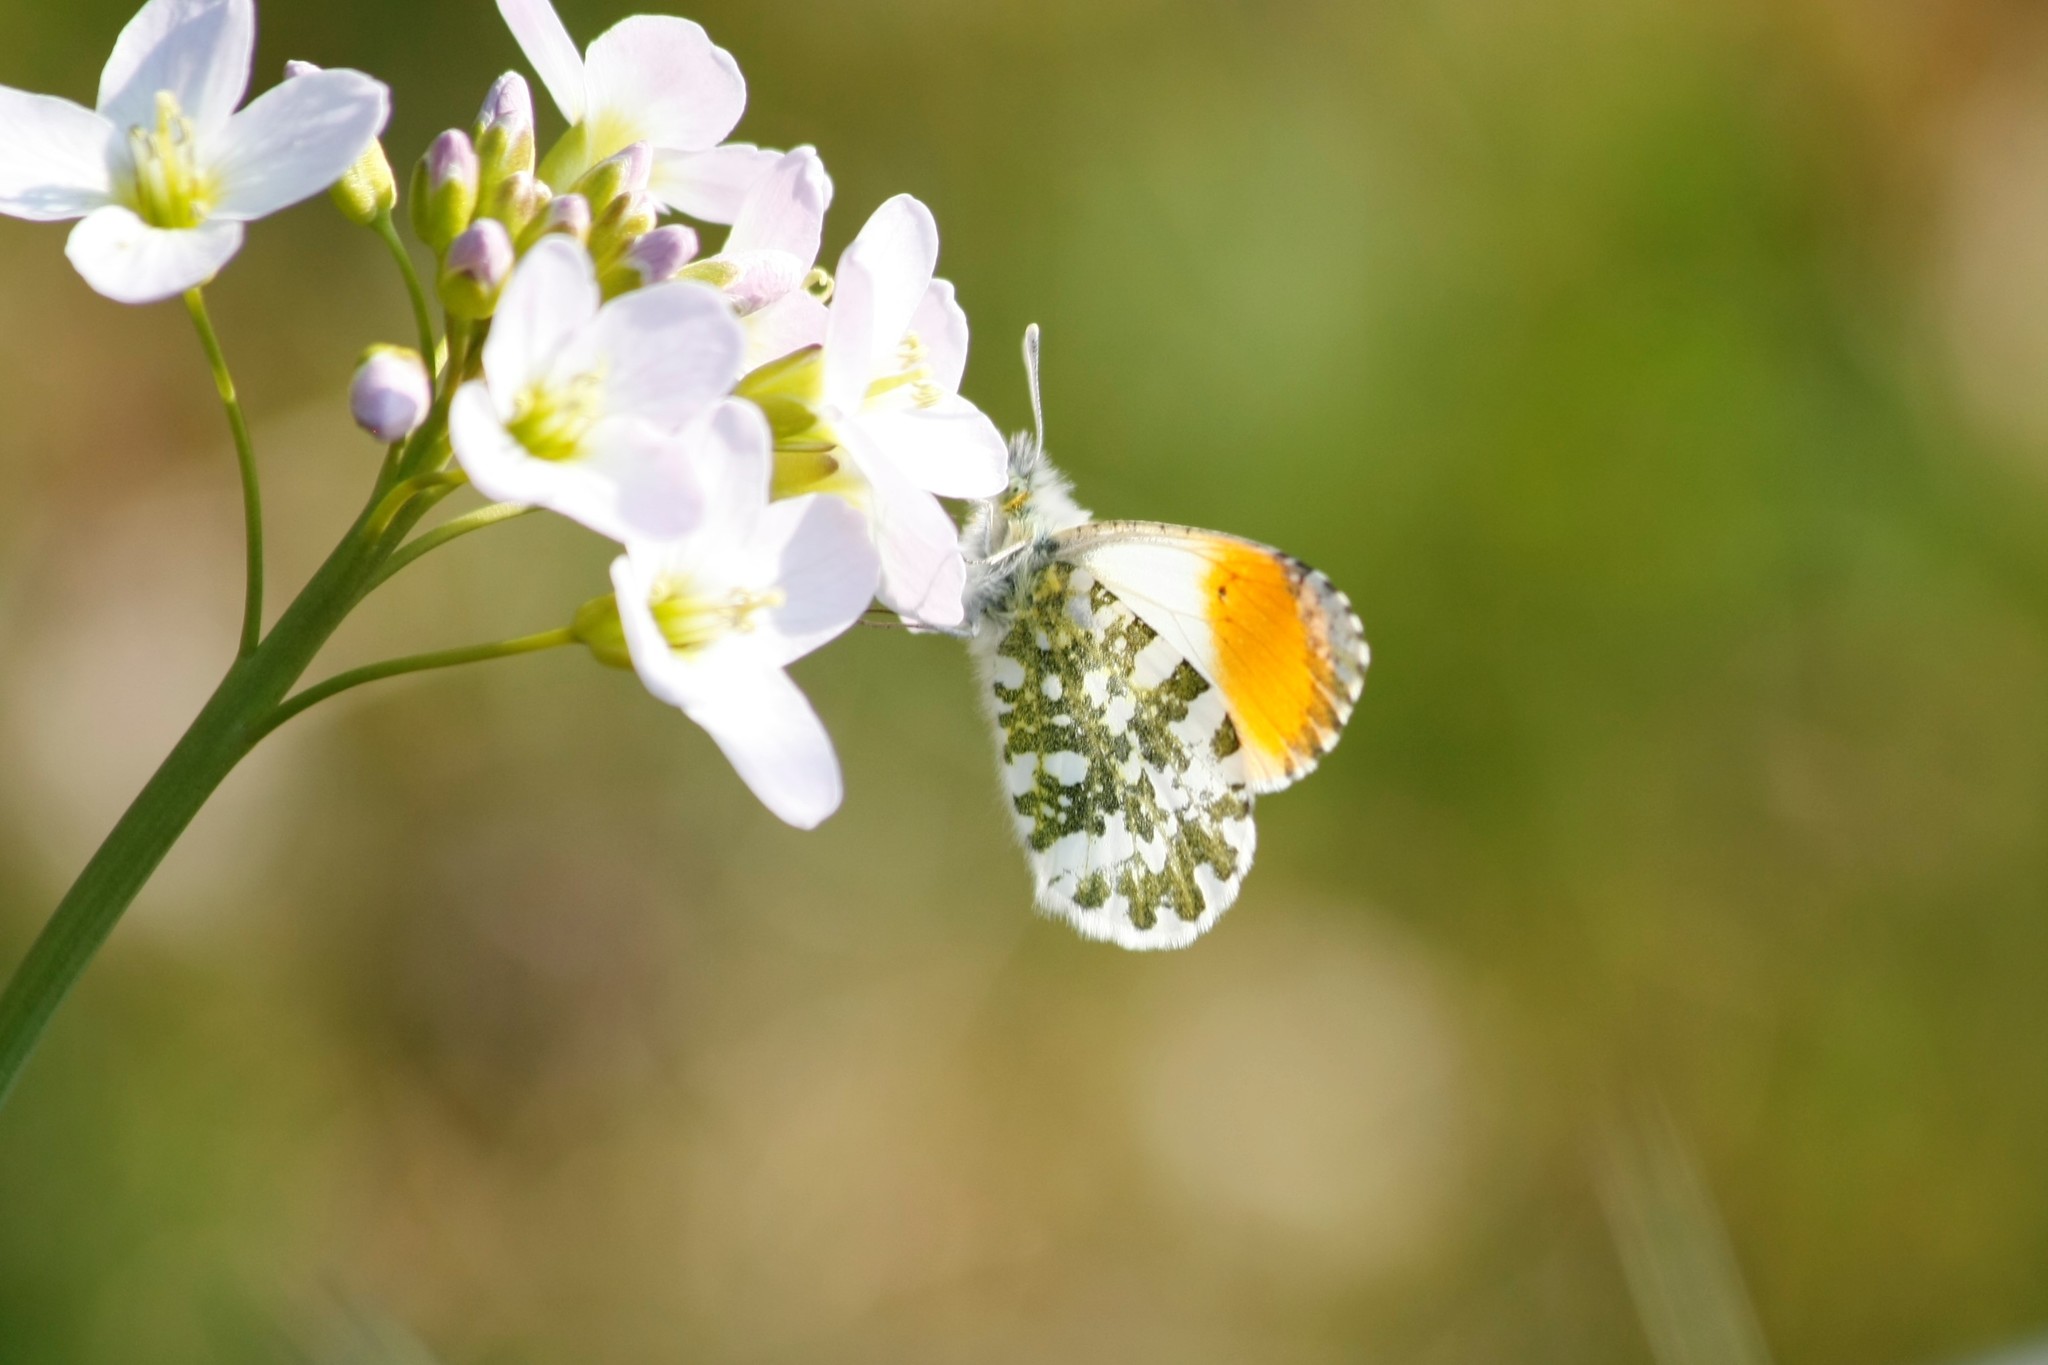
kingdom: Animalia
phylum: Arthropoda
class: Insecta
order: Lepidoptera
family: Pieridae
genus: Anthocharis
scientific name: Anthocharis cardamines
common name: Orange-tip
